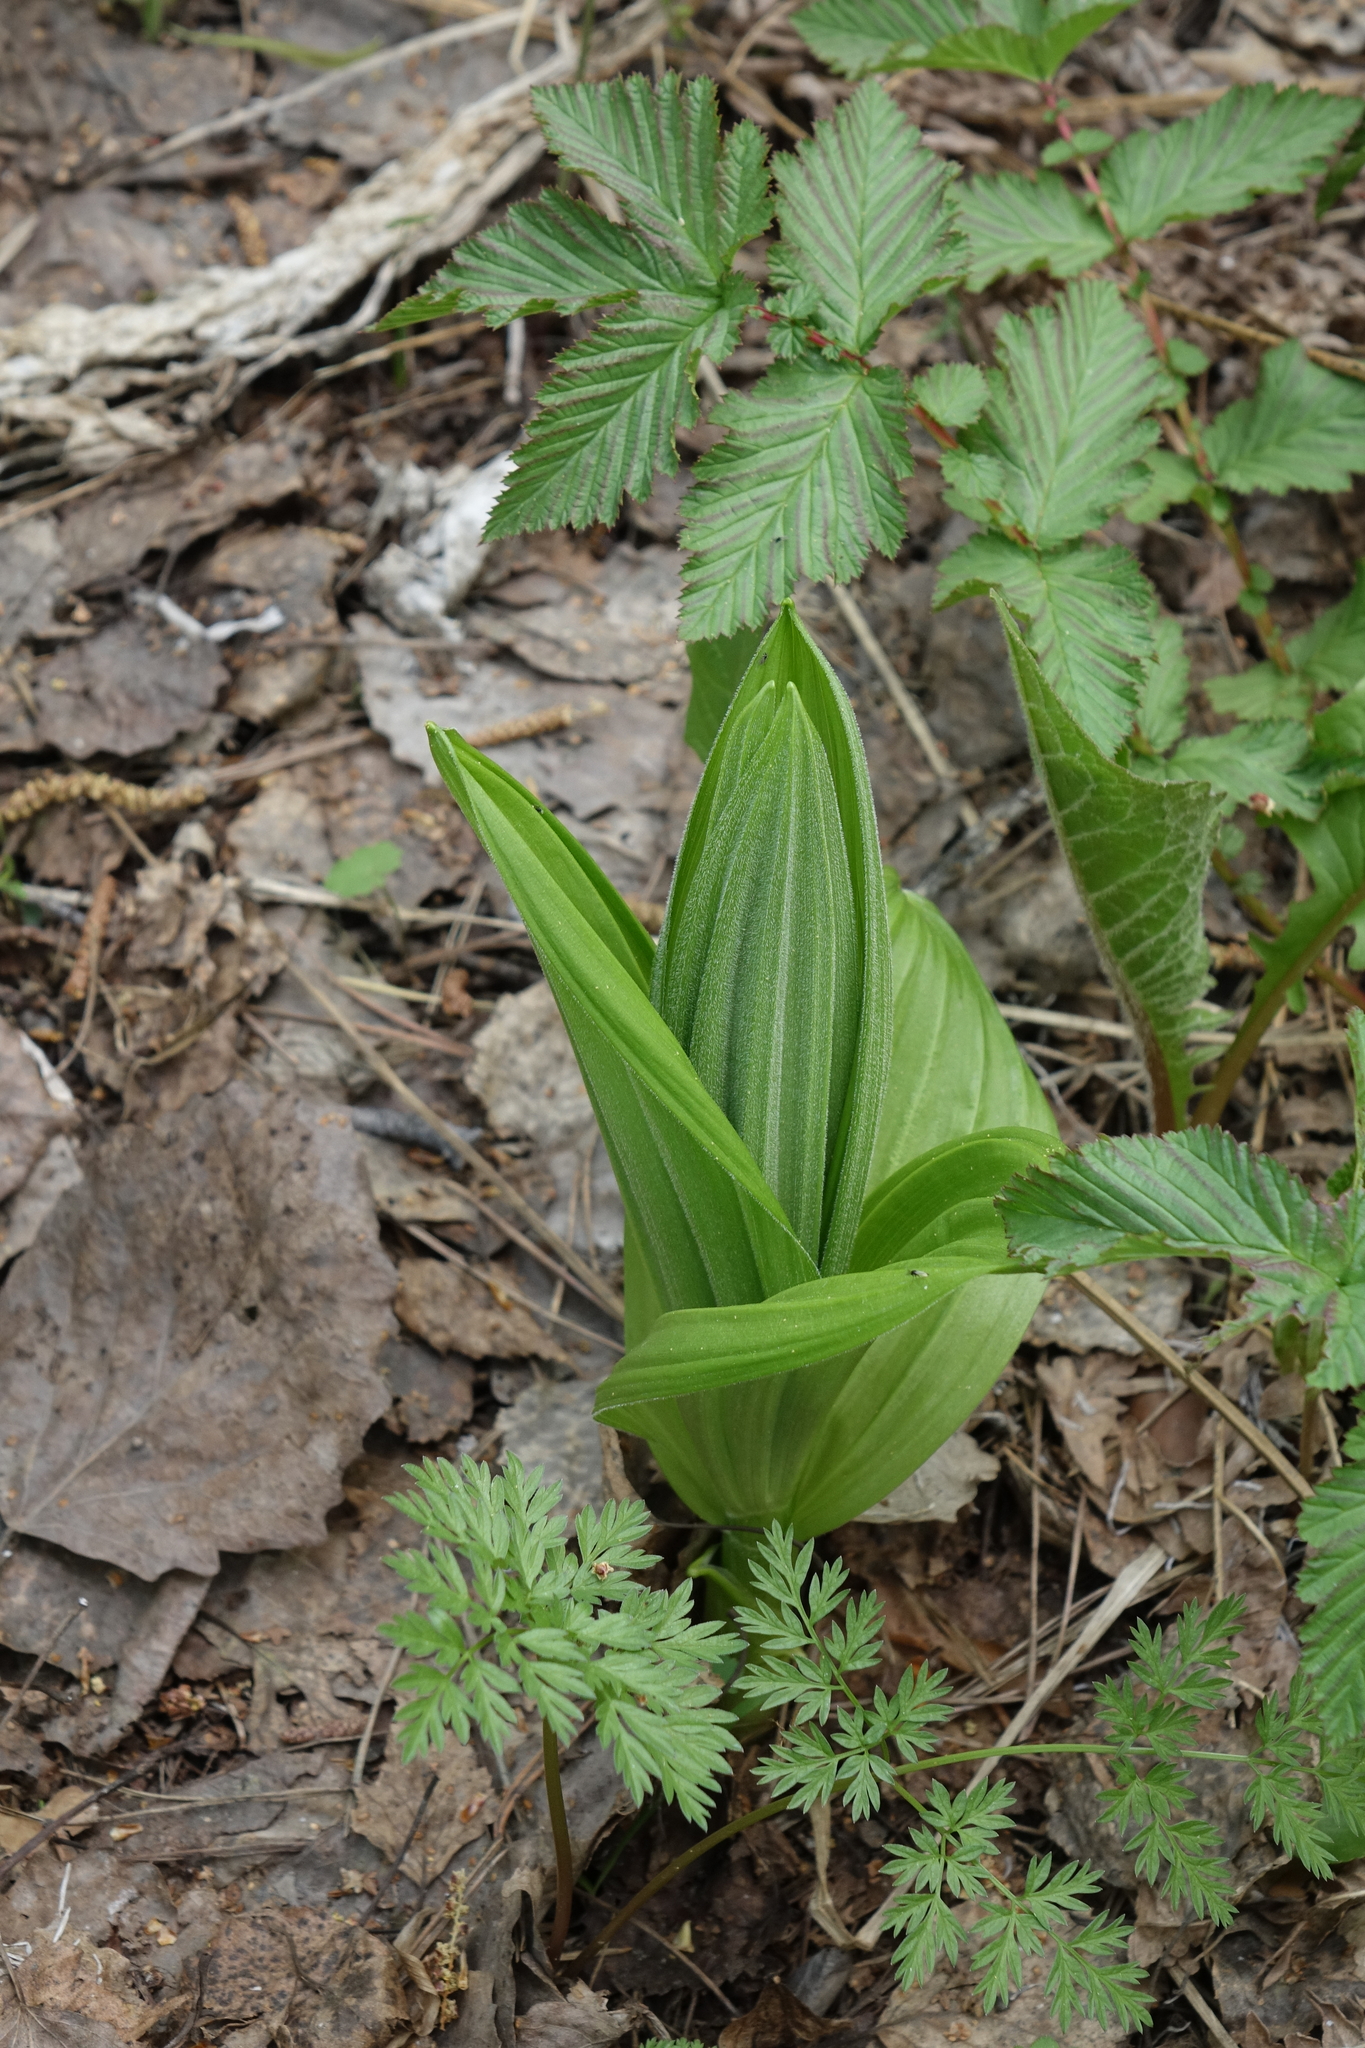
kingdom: Plantae
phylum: Tracheophyta
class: Liliopsida
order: Liliales
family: Melanthiaceae
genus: Veratrum
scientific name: Veratrum lobelianum
